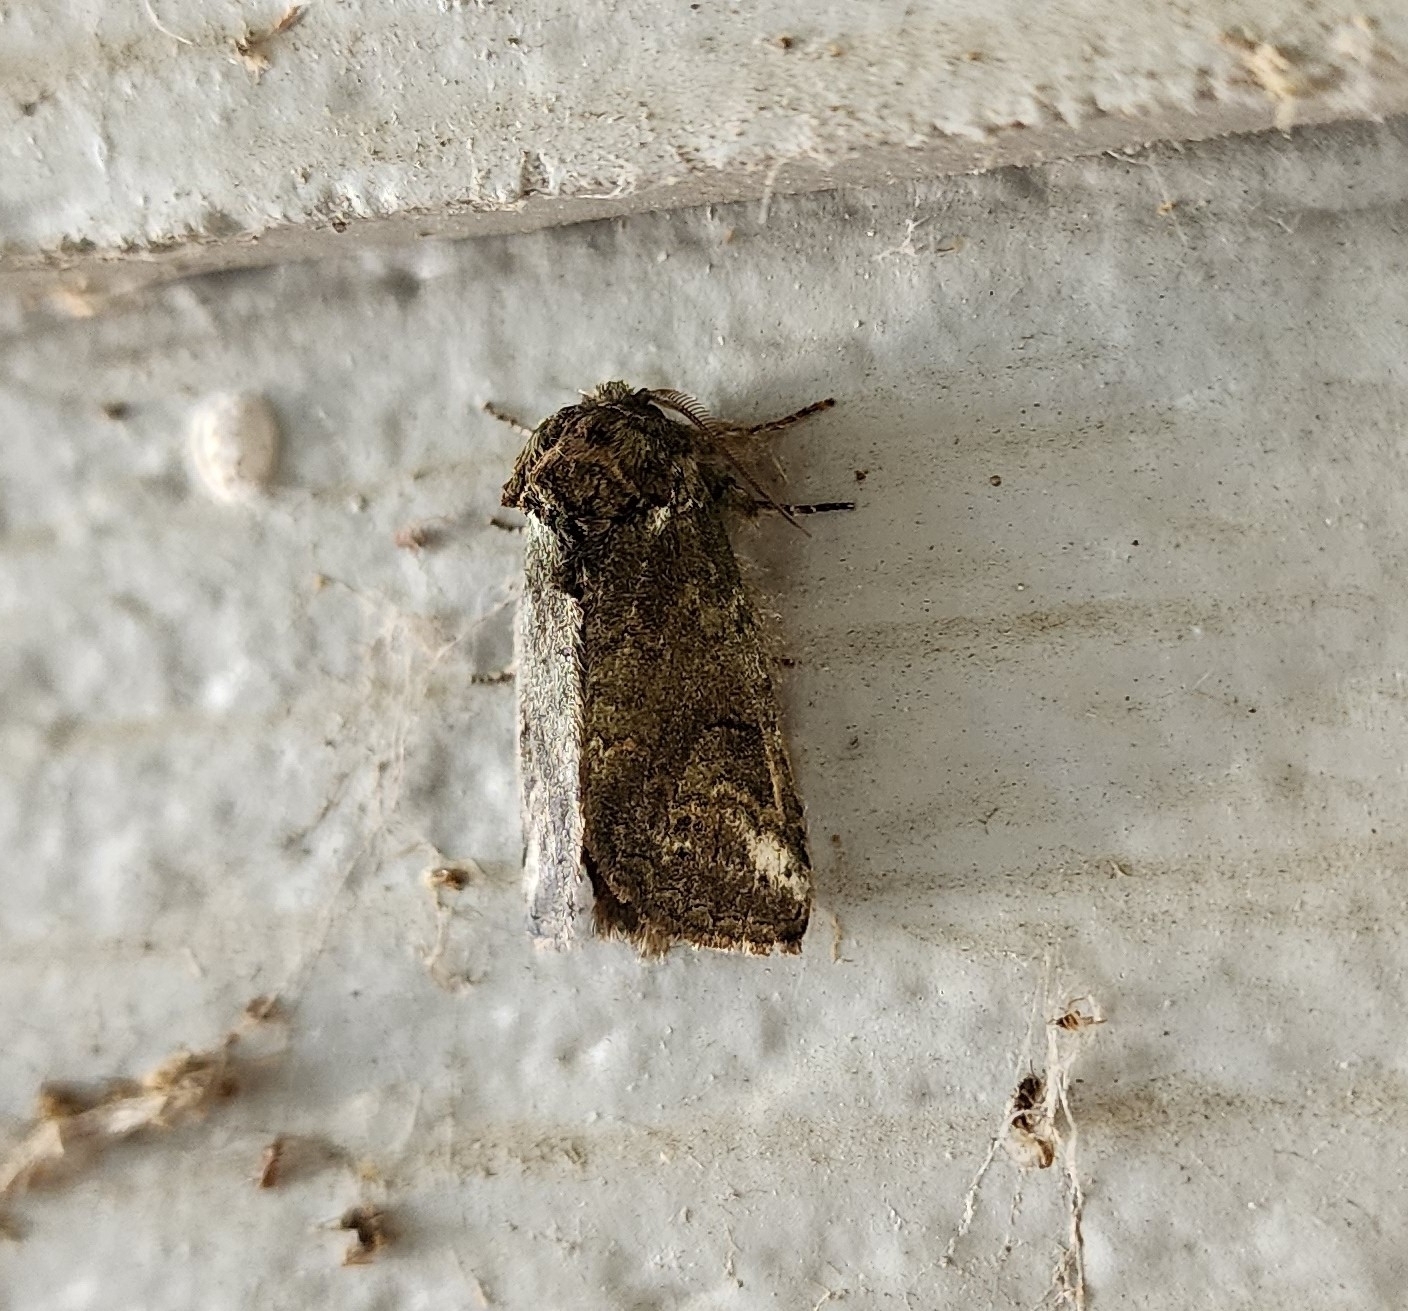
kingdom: Animalia
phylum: Arthropoda
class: Insecta
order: Lepidoptera
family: Notodontidae
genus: Rifargia
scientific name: Rifargia
